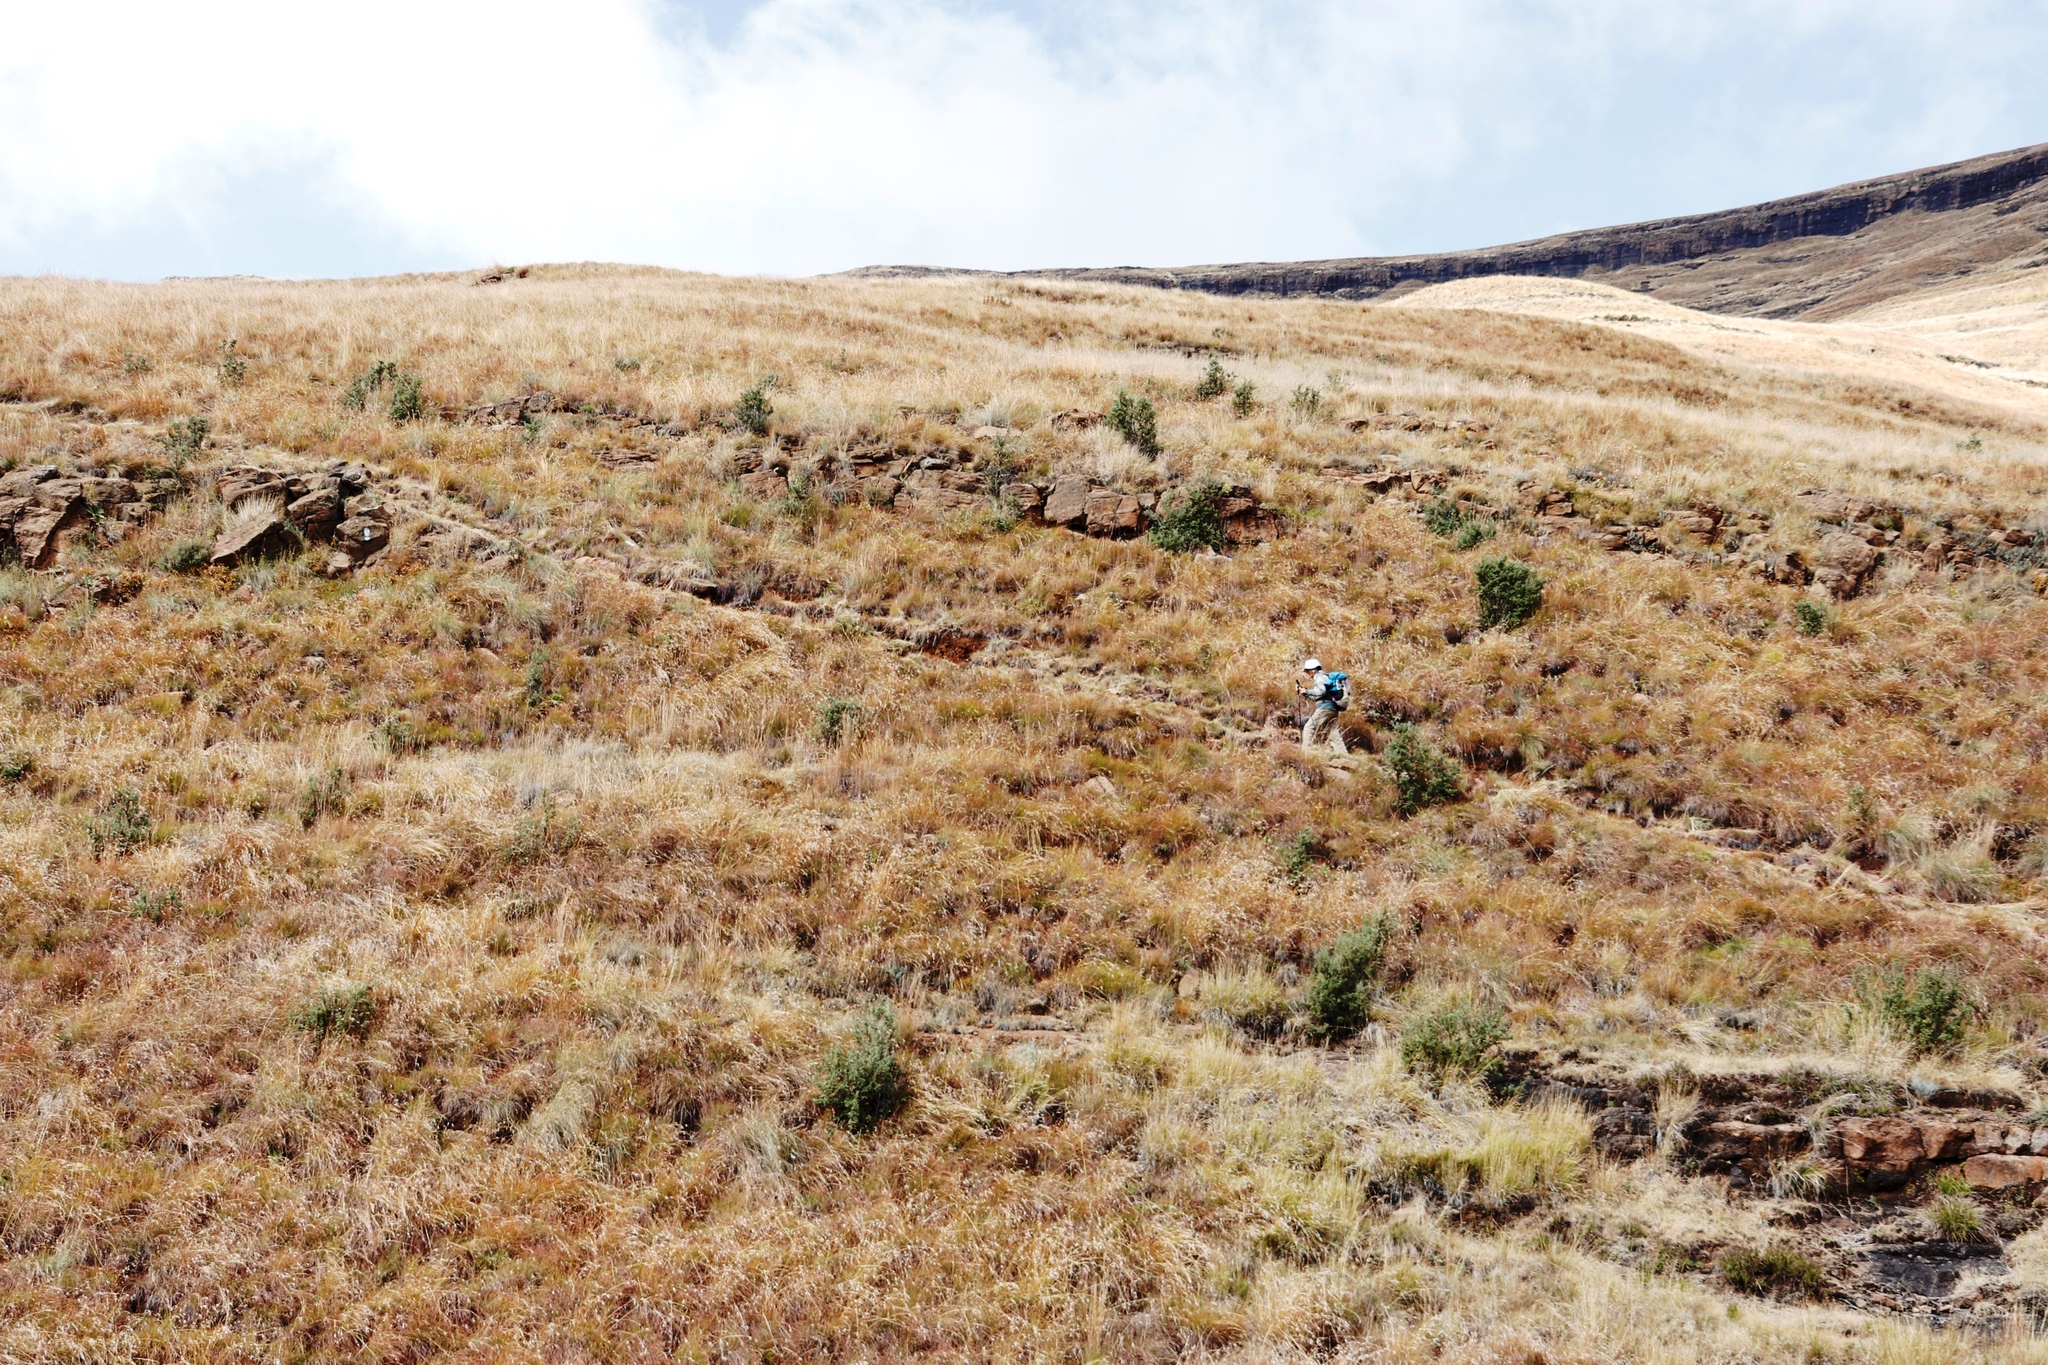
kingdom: Plantae
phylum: Tracheophyta
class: Magnoliopsida
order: Rosales
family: Rosaceae
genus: Leucosidea
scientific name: Leucosidea sericea
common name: Oldwood
